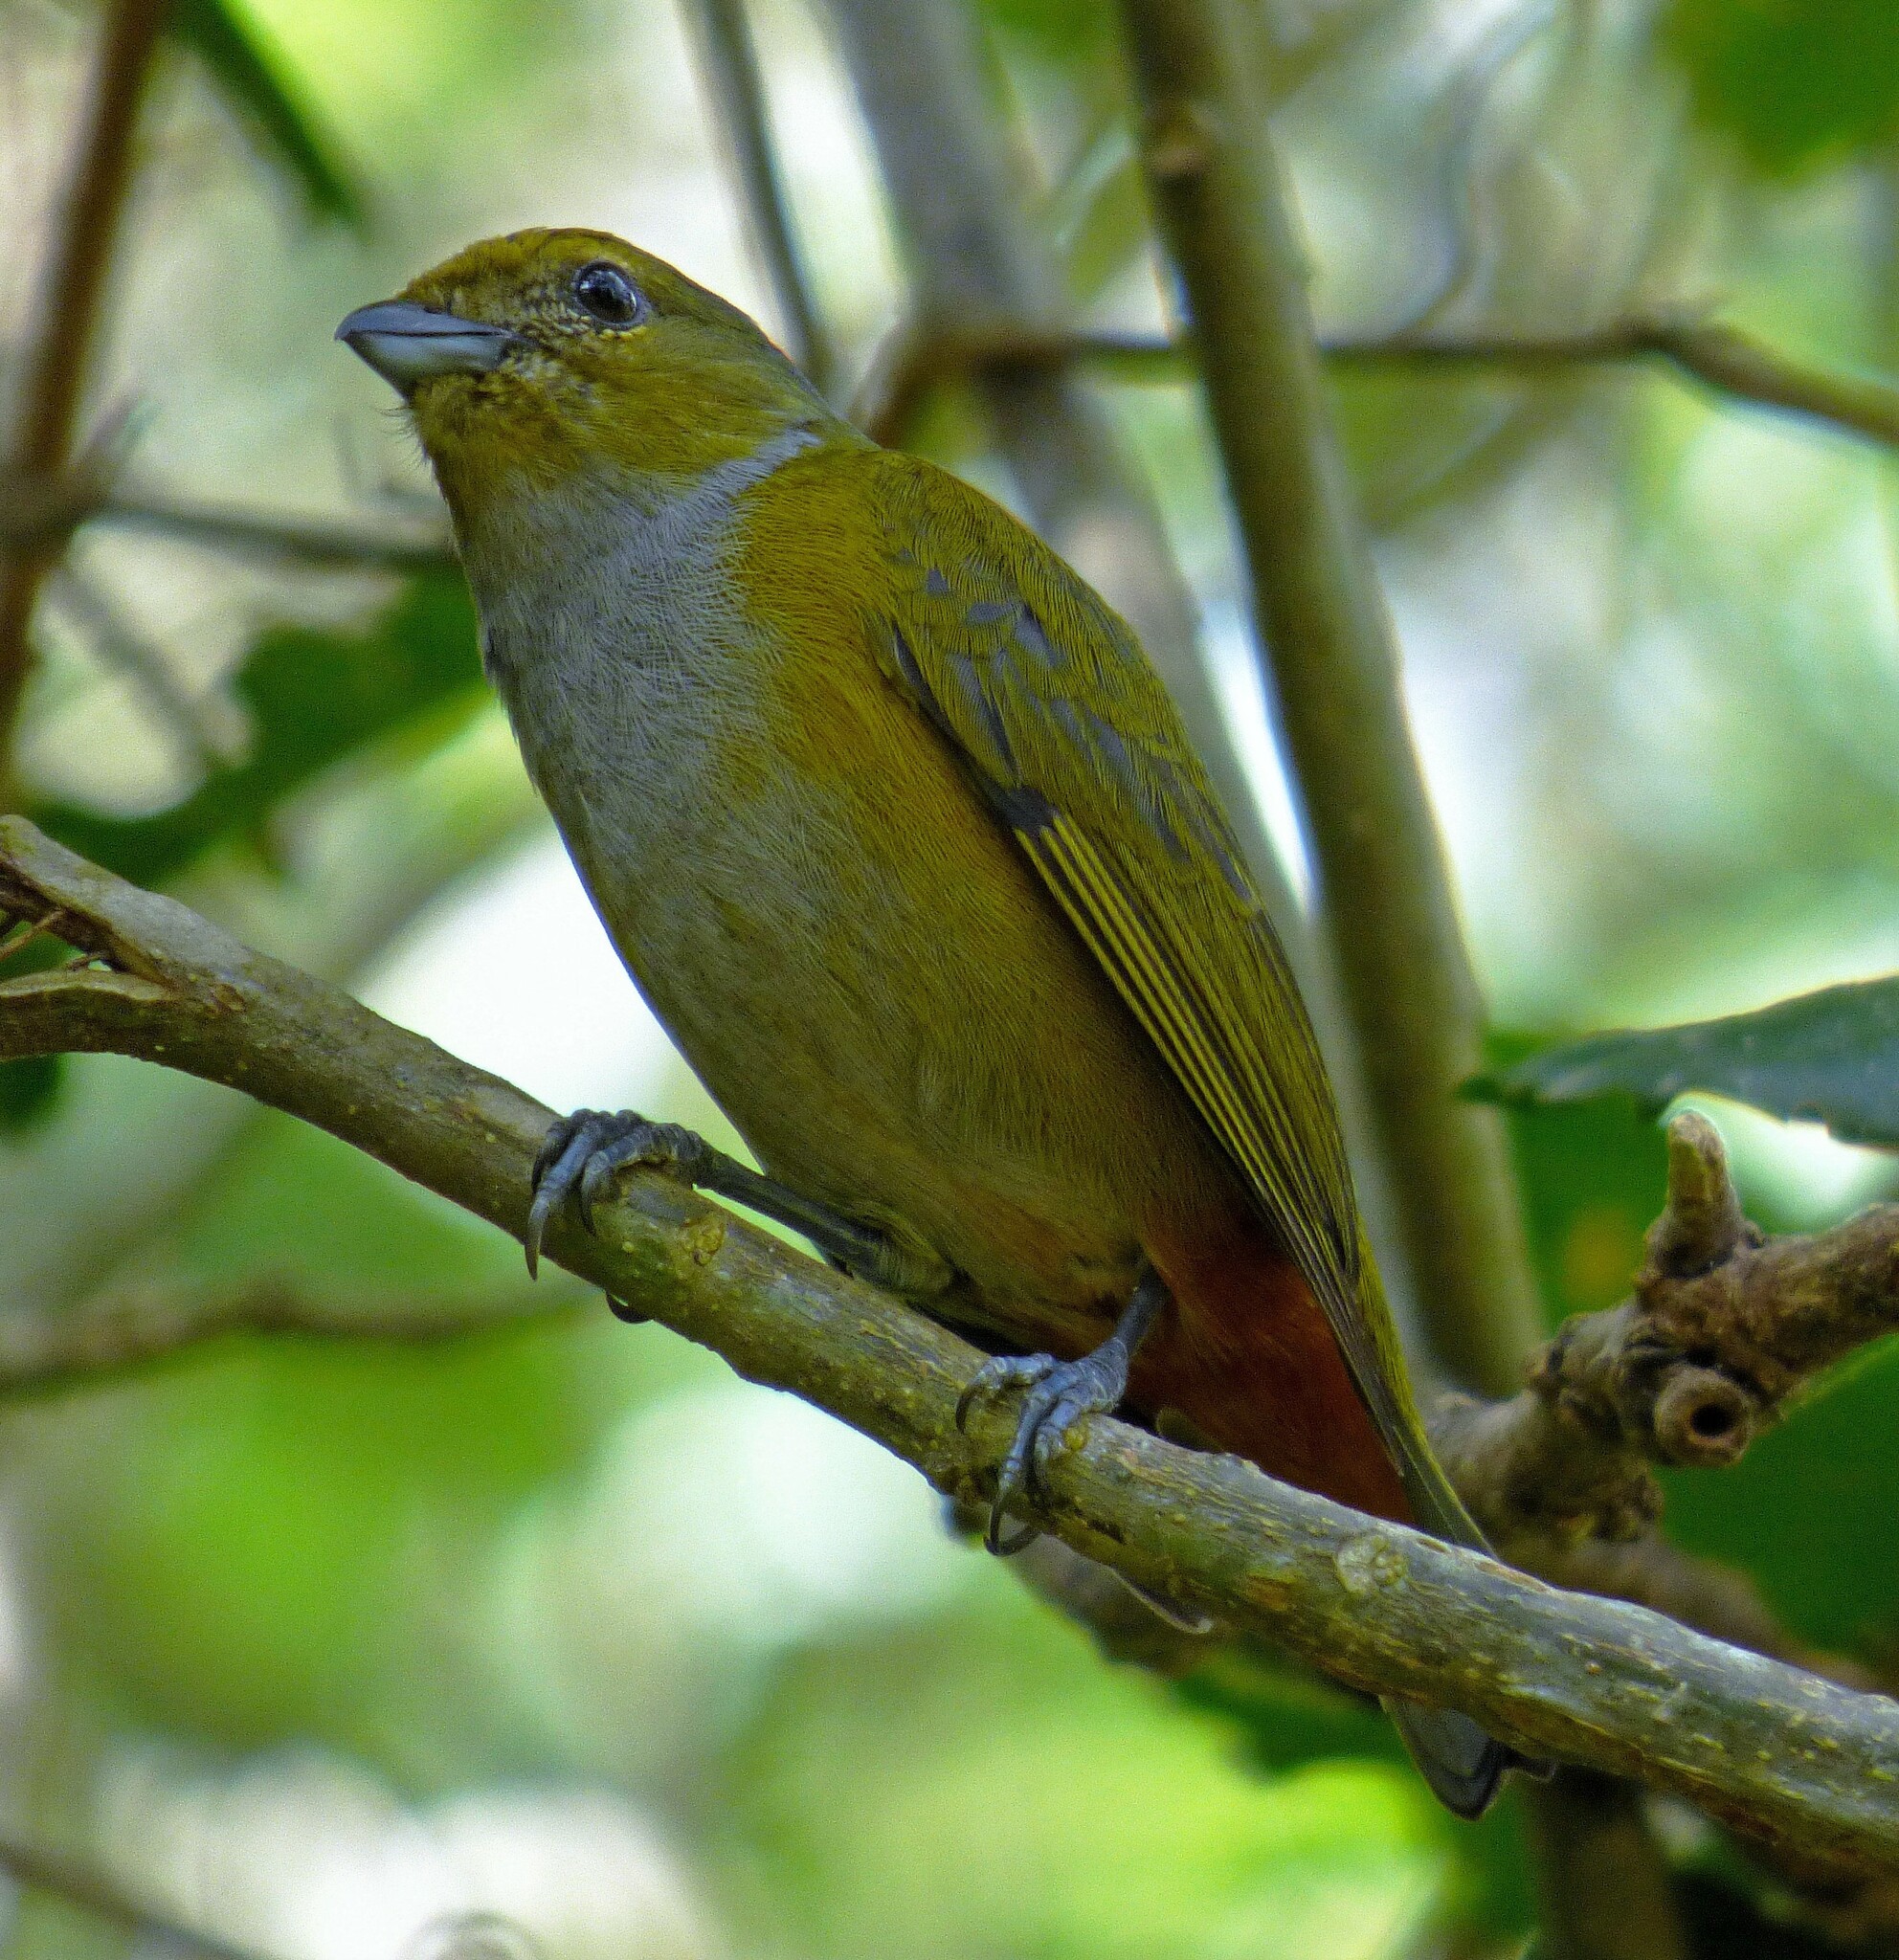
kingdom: Animalia
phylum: Chordata
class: Aves
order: Passeriformes
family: Fringillidae
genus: Euphonia
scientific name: Euphonia pectoralis
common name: Chestnut-bellied euphonia
